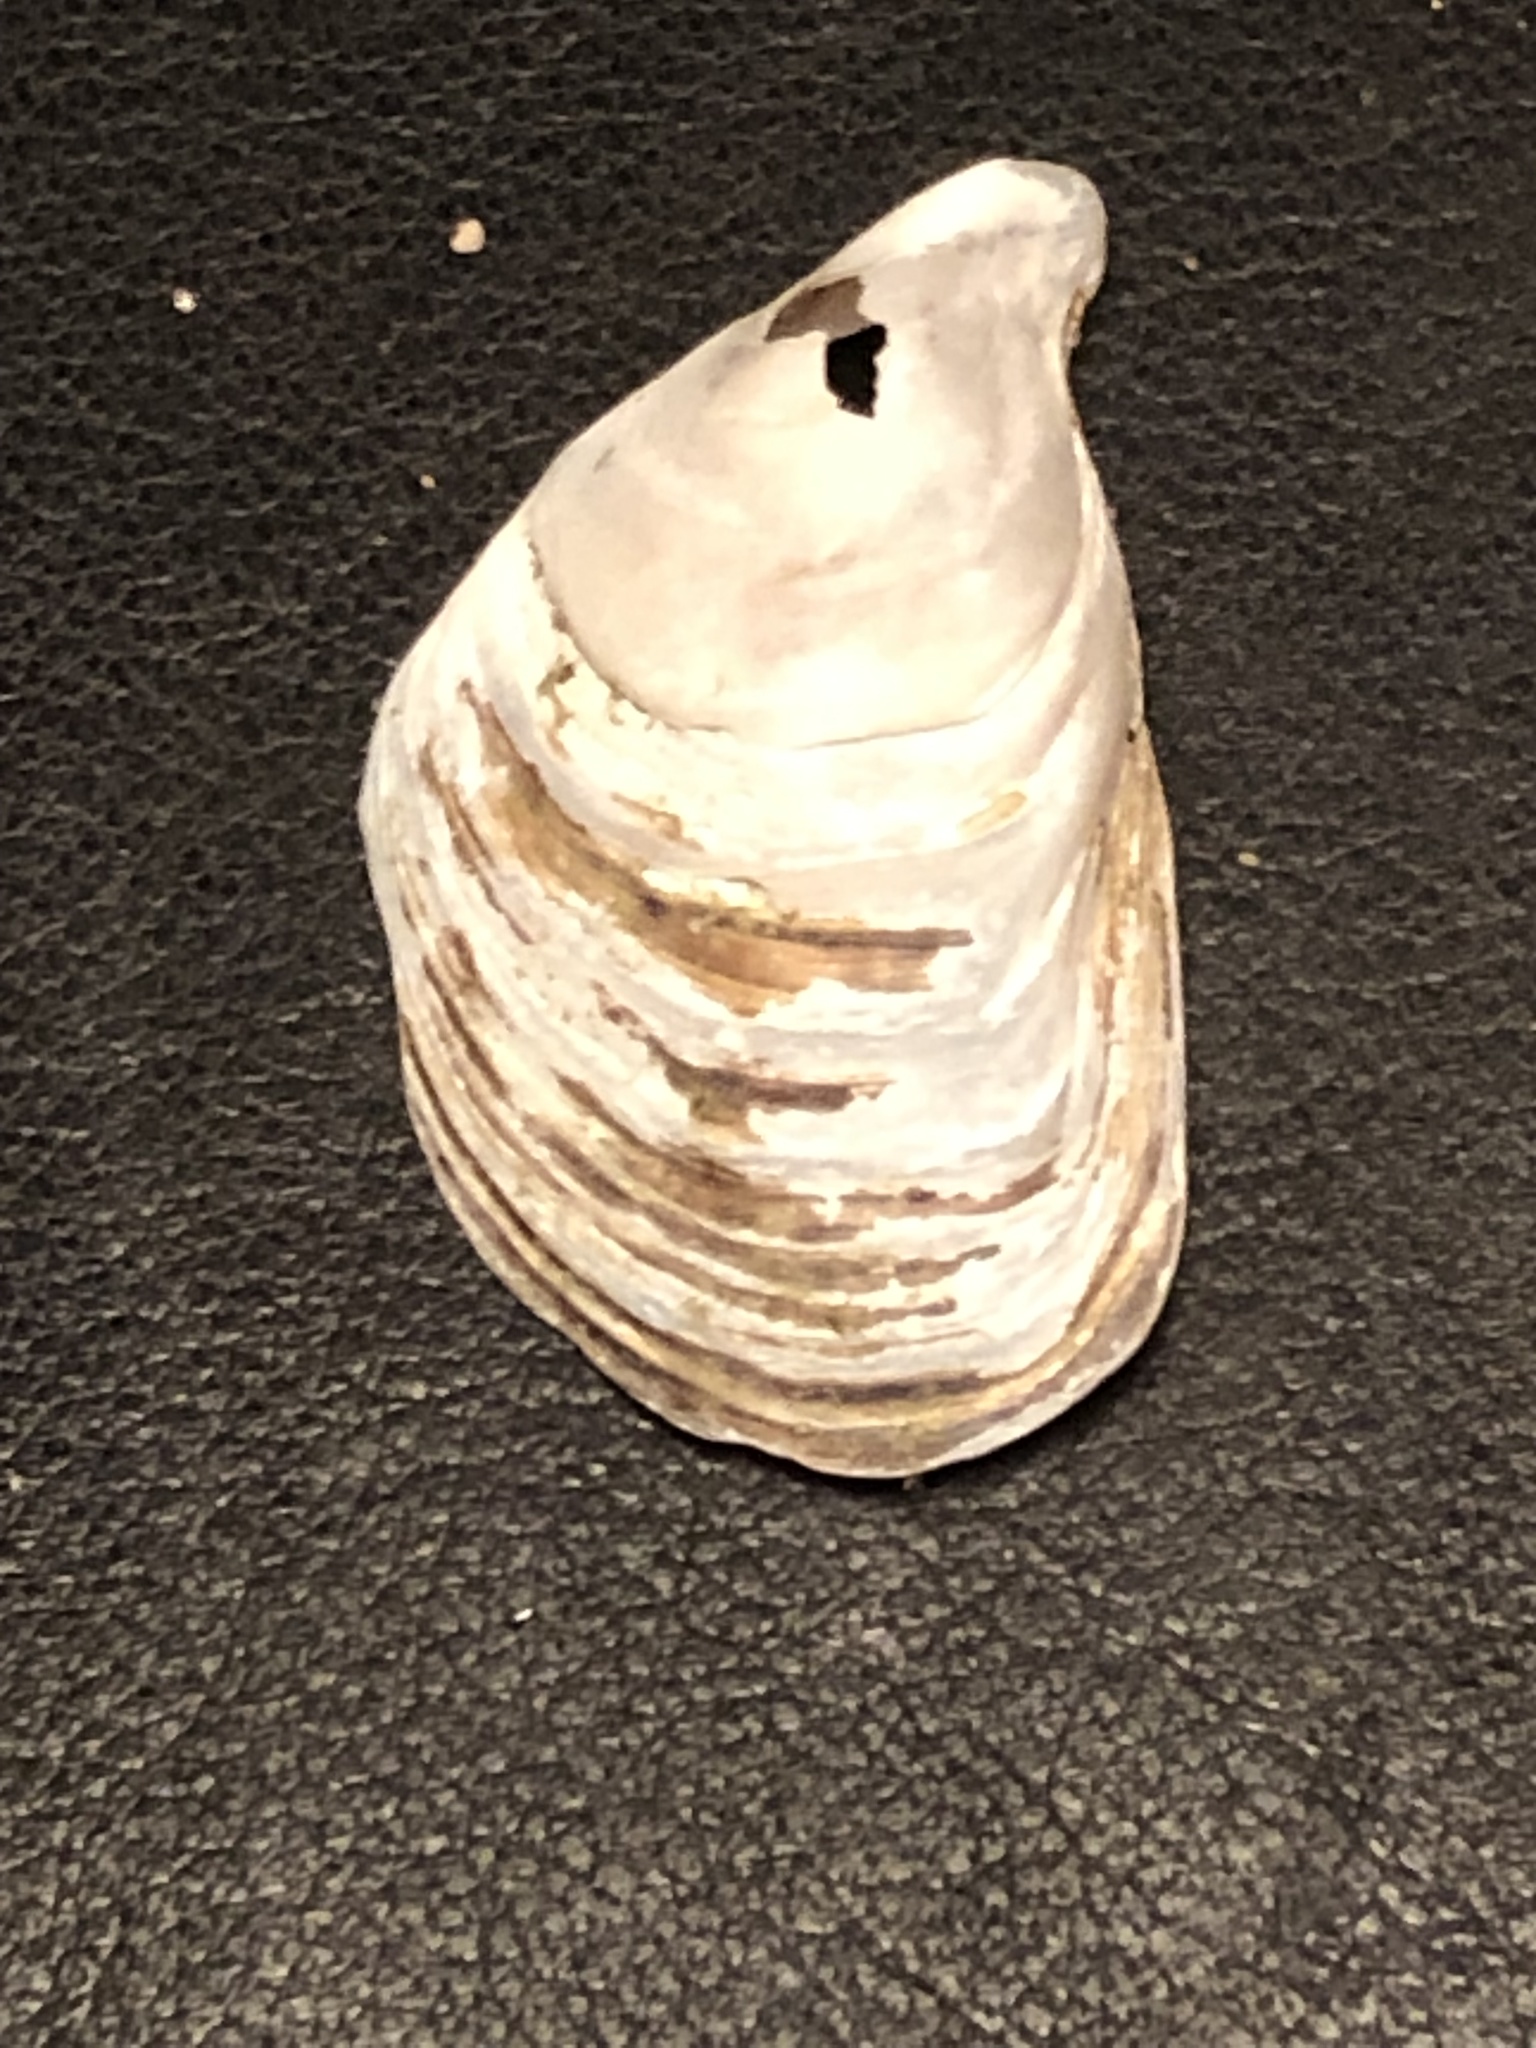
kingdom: Animalia
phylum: Mollusca
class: Bivalvia
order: Myida
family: Dreissenidae
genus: Dreissena
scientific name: Dreissena bugensis
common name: Quagga mussel
